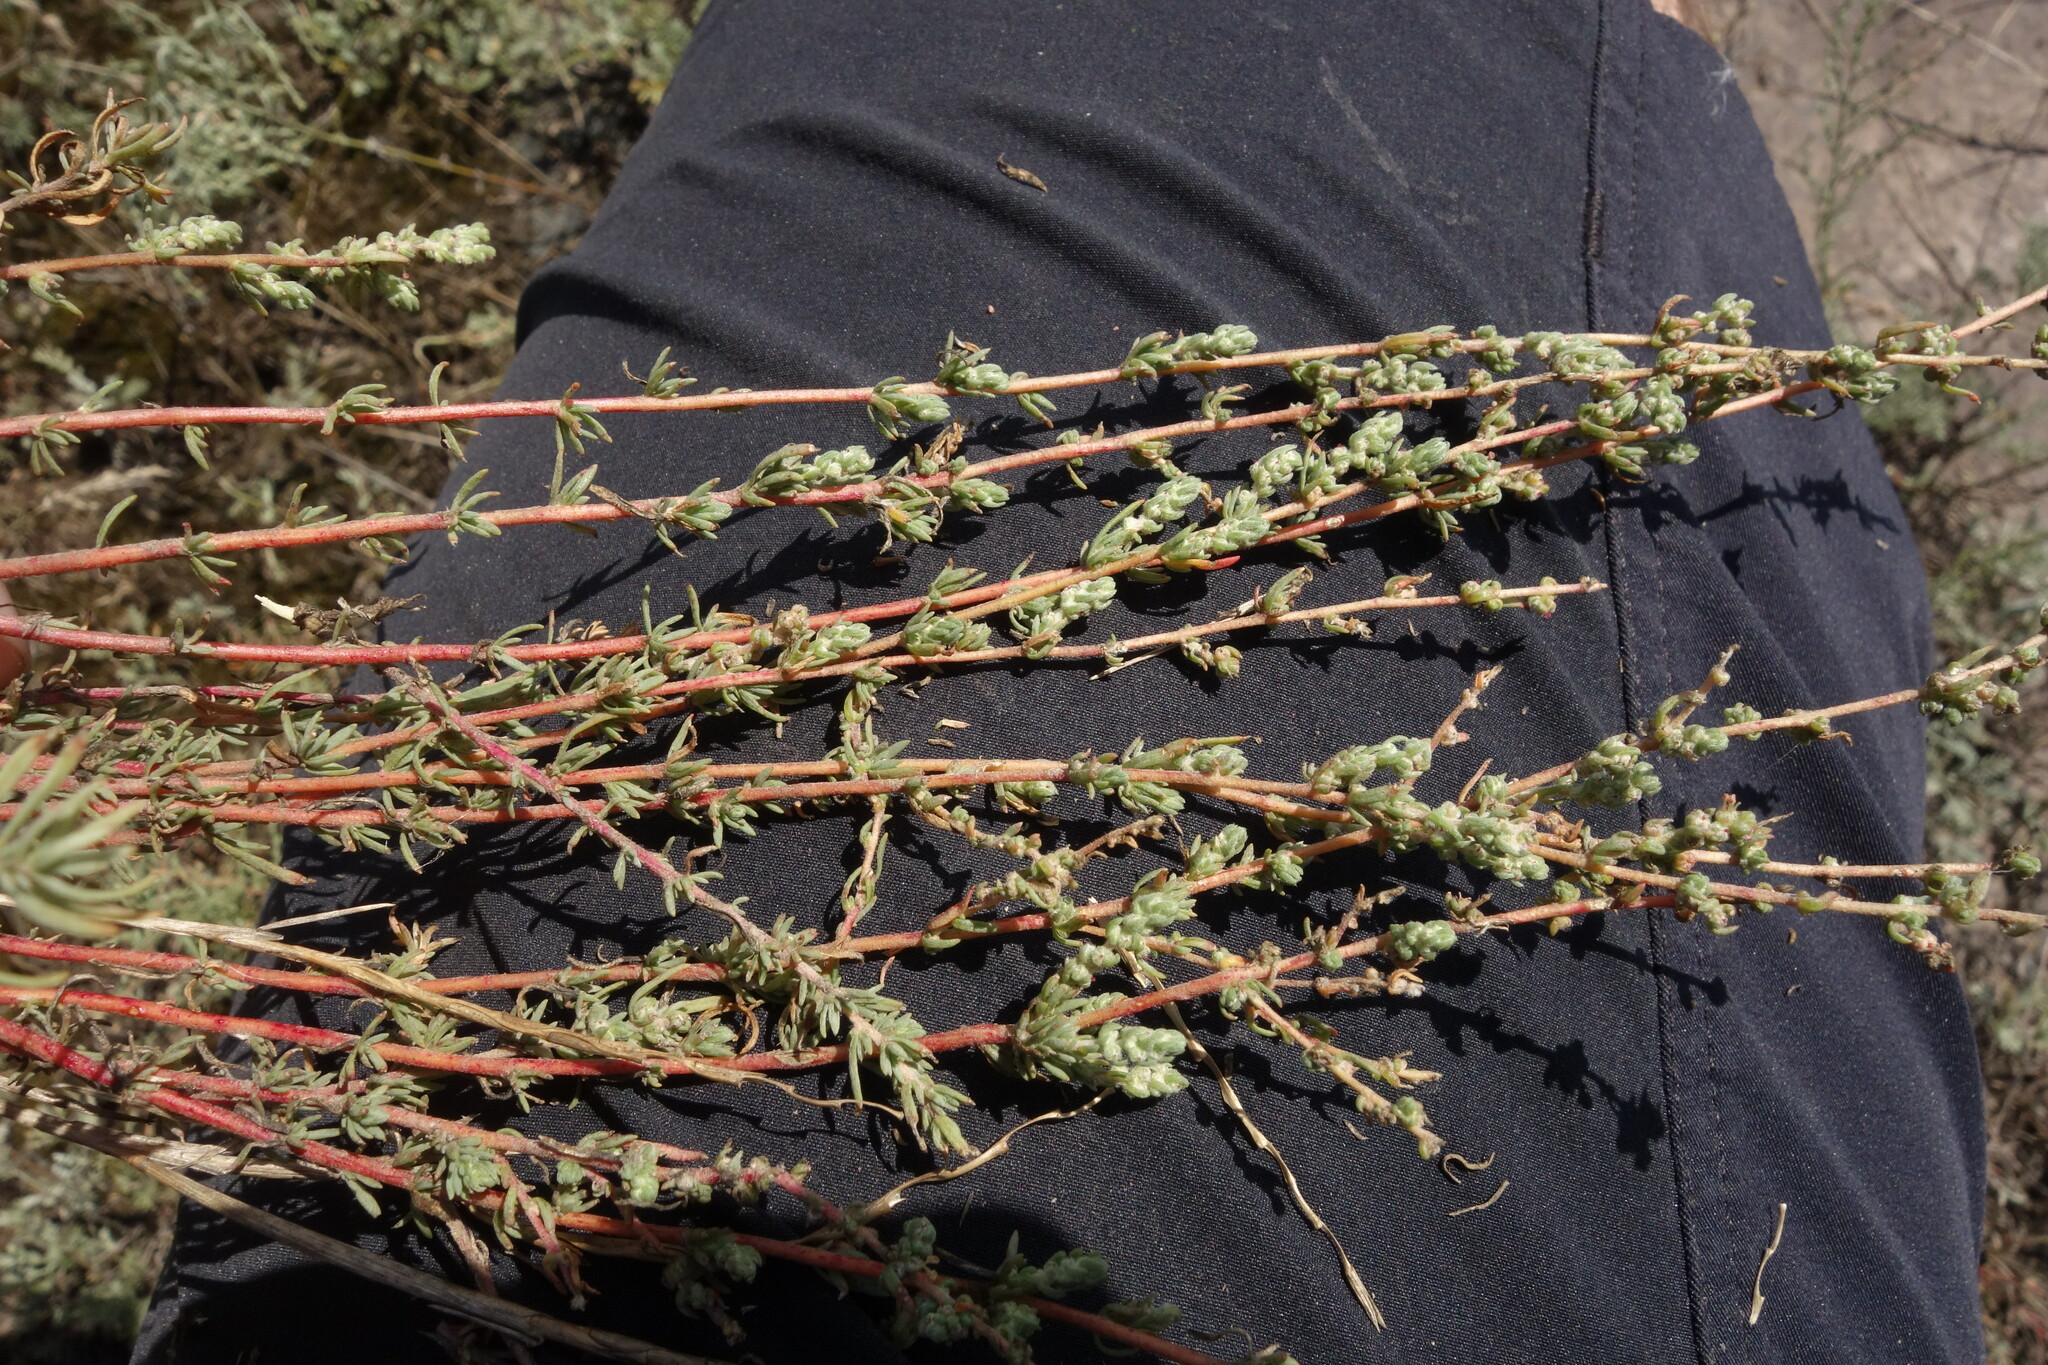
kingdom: Plantae
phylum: Tracheophyta
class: Magnoliopsida
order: Caryophyllales
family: Amaranthaceae
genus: Bassia
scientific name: Bassia prostrata
